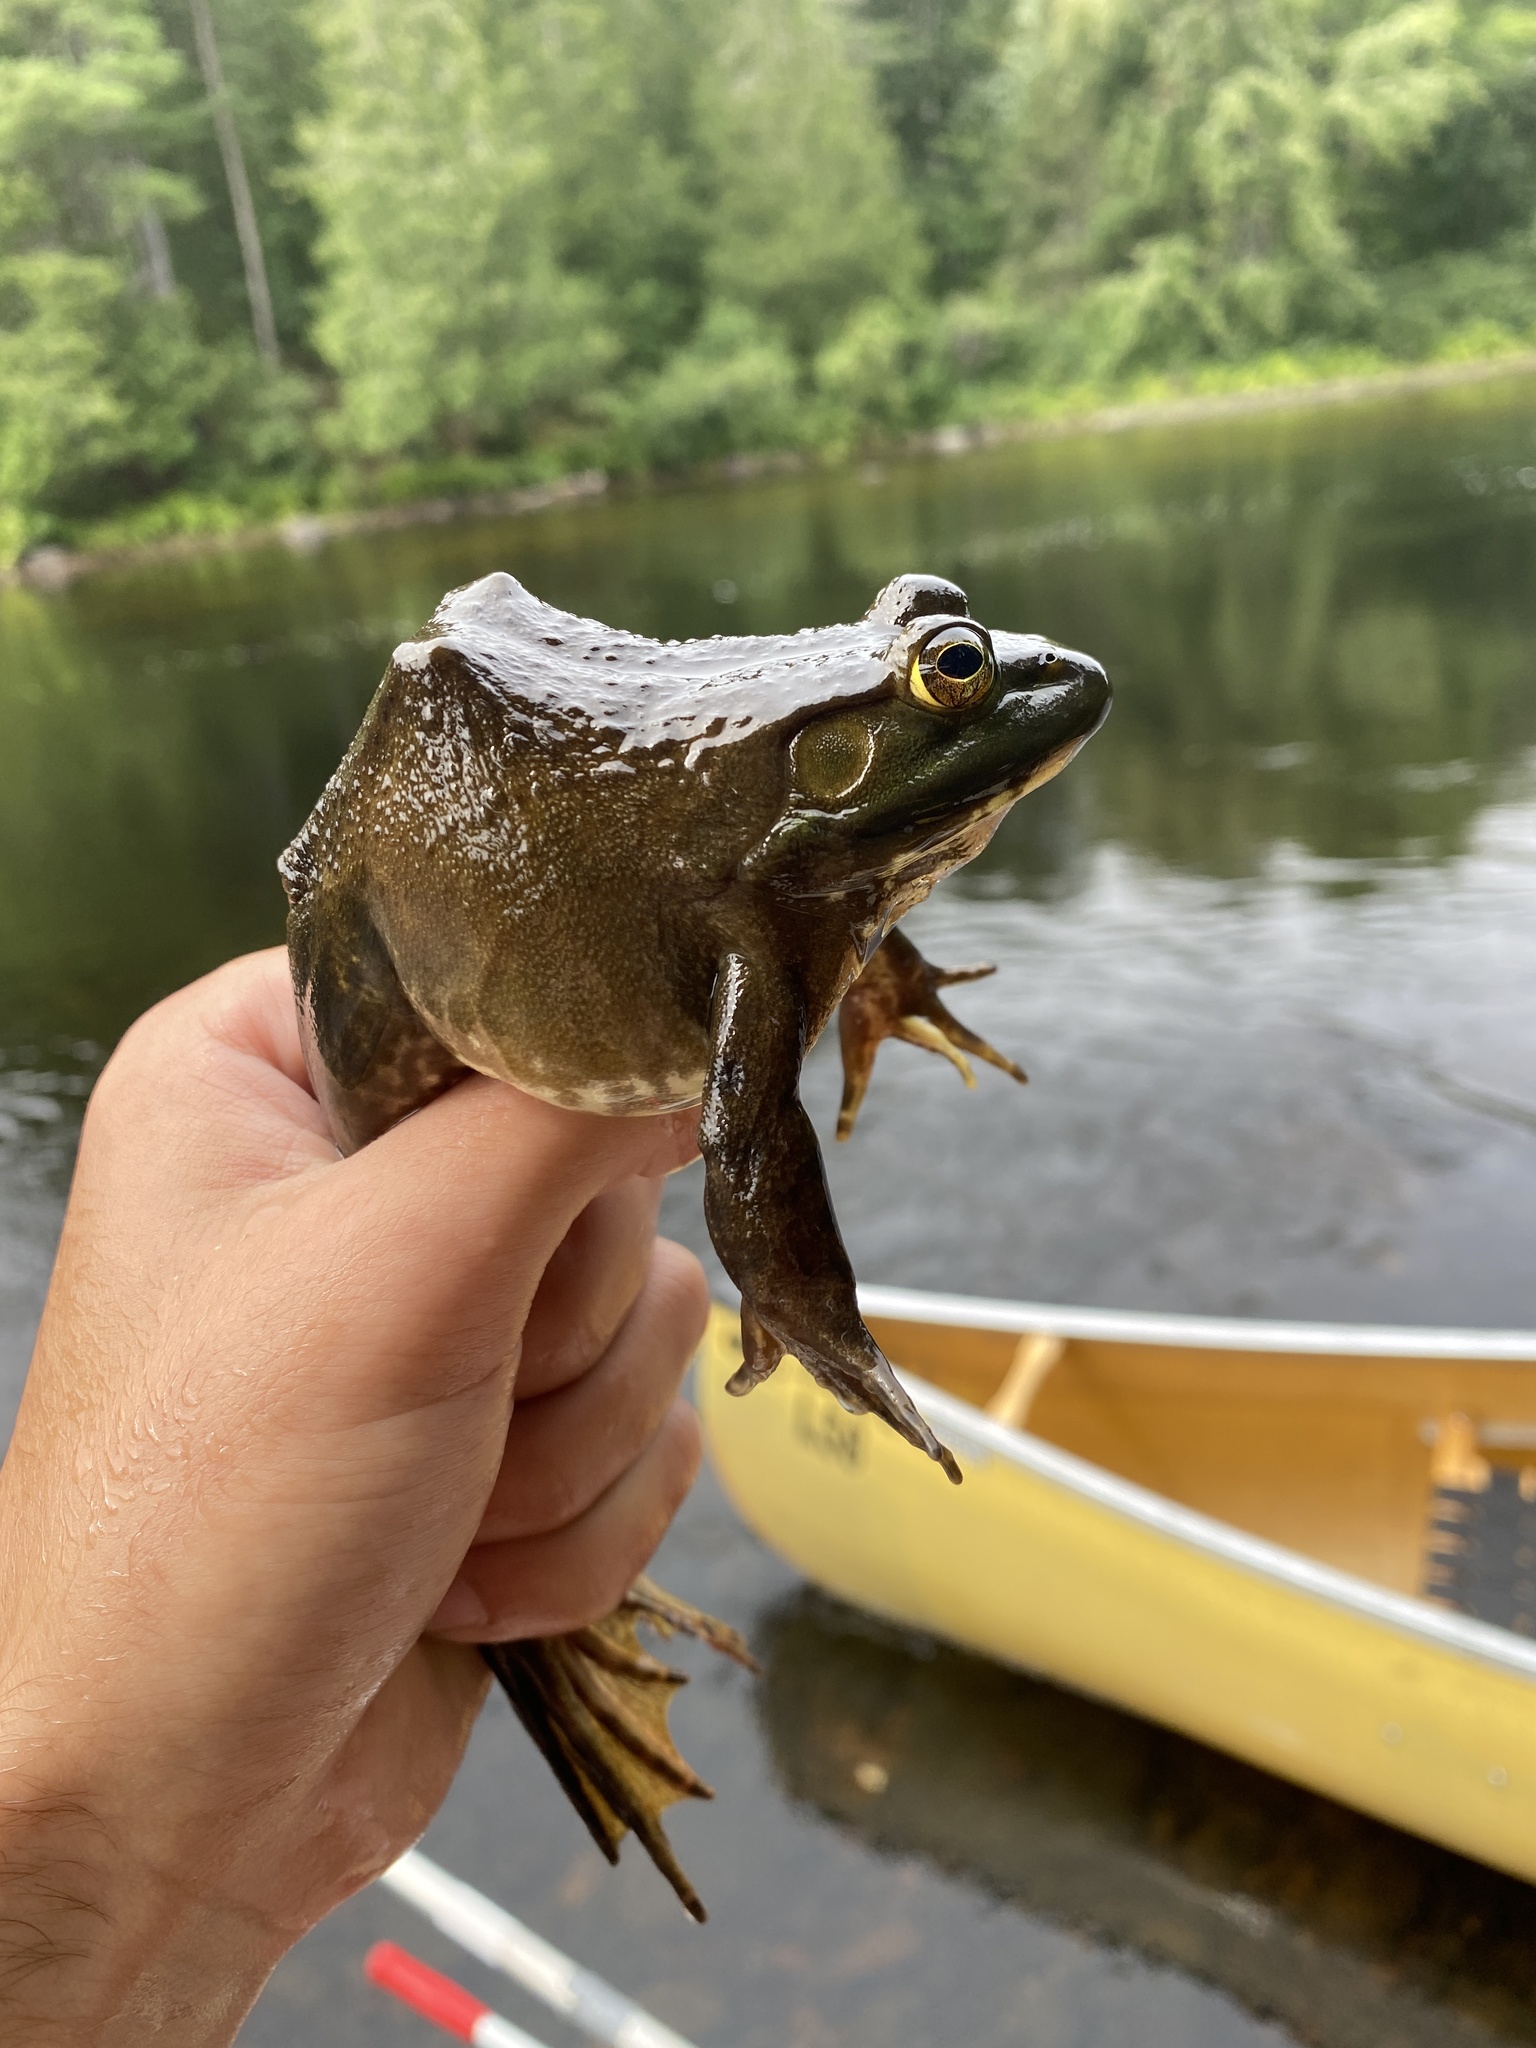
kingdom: Animalia
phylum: Chordata
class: Amphibia
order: Anura
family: Ranidae
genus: Lithobates
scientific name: Lithobates catesbeianus
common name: American bullfrog
